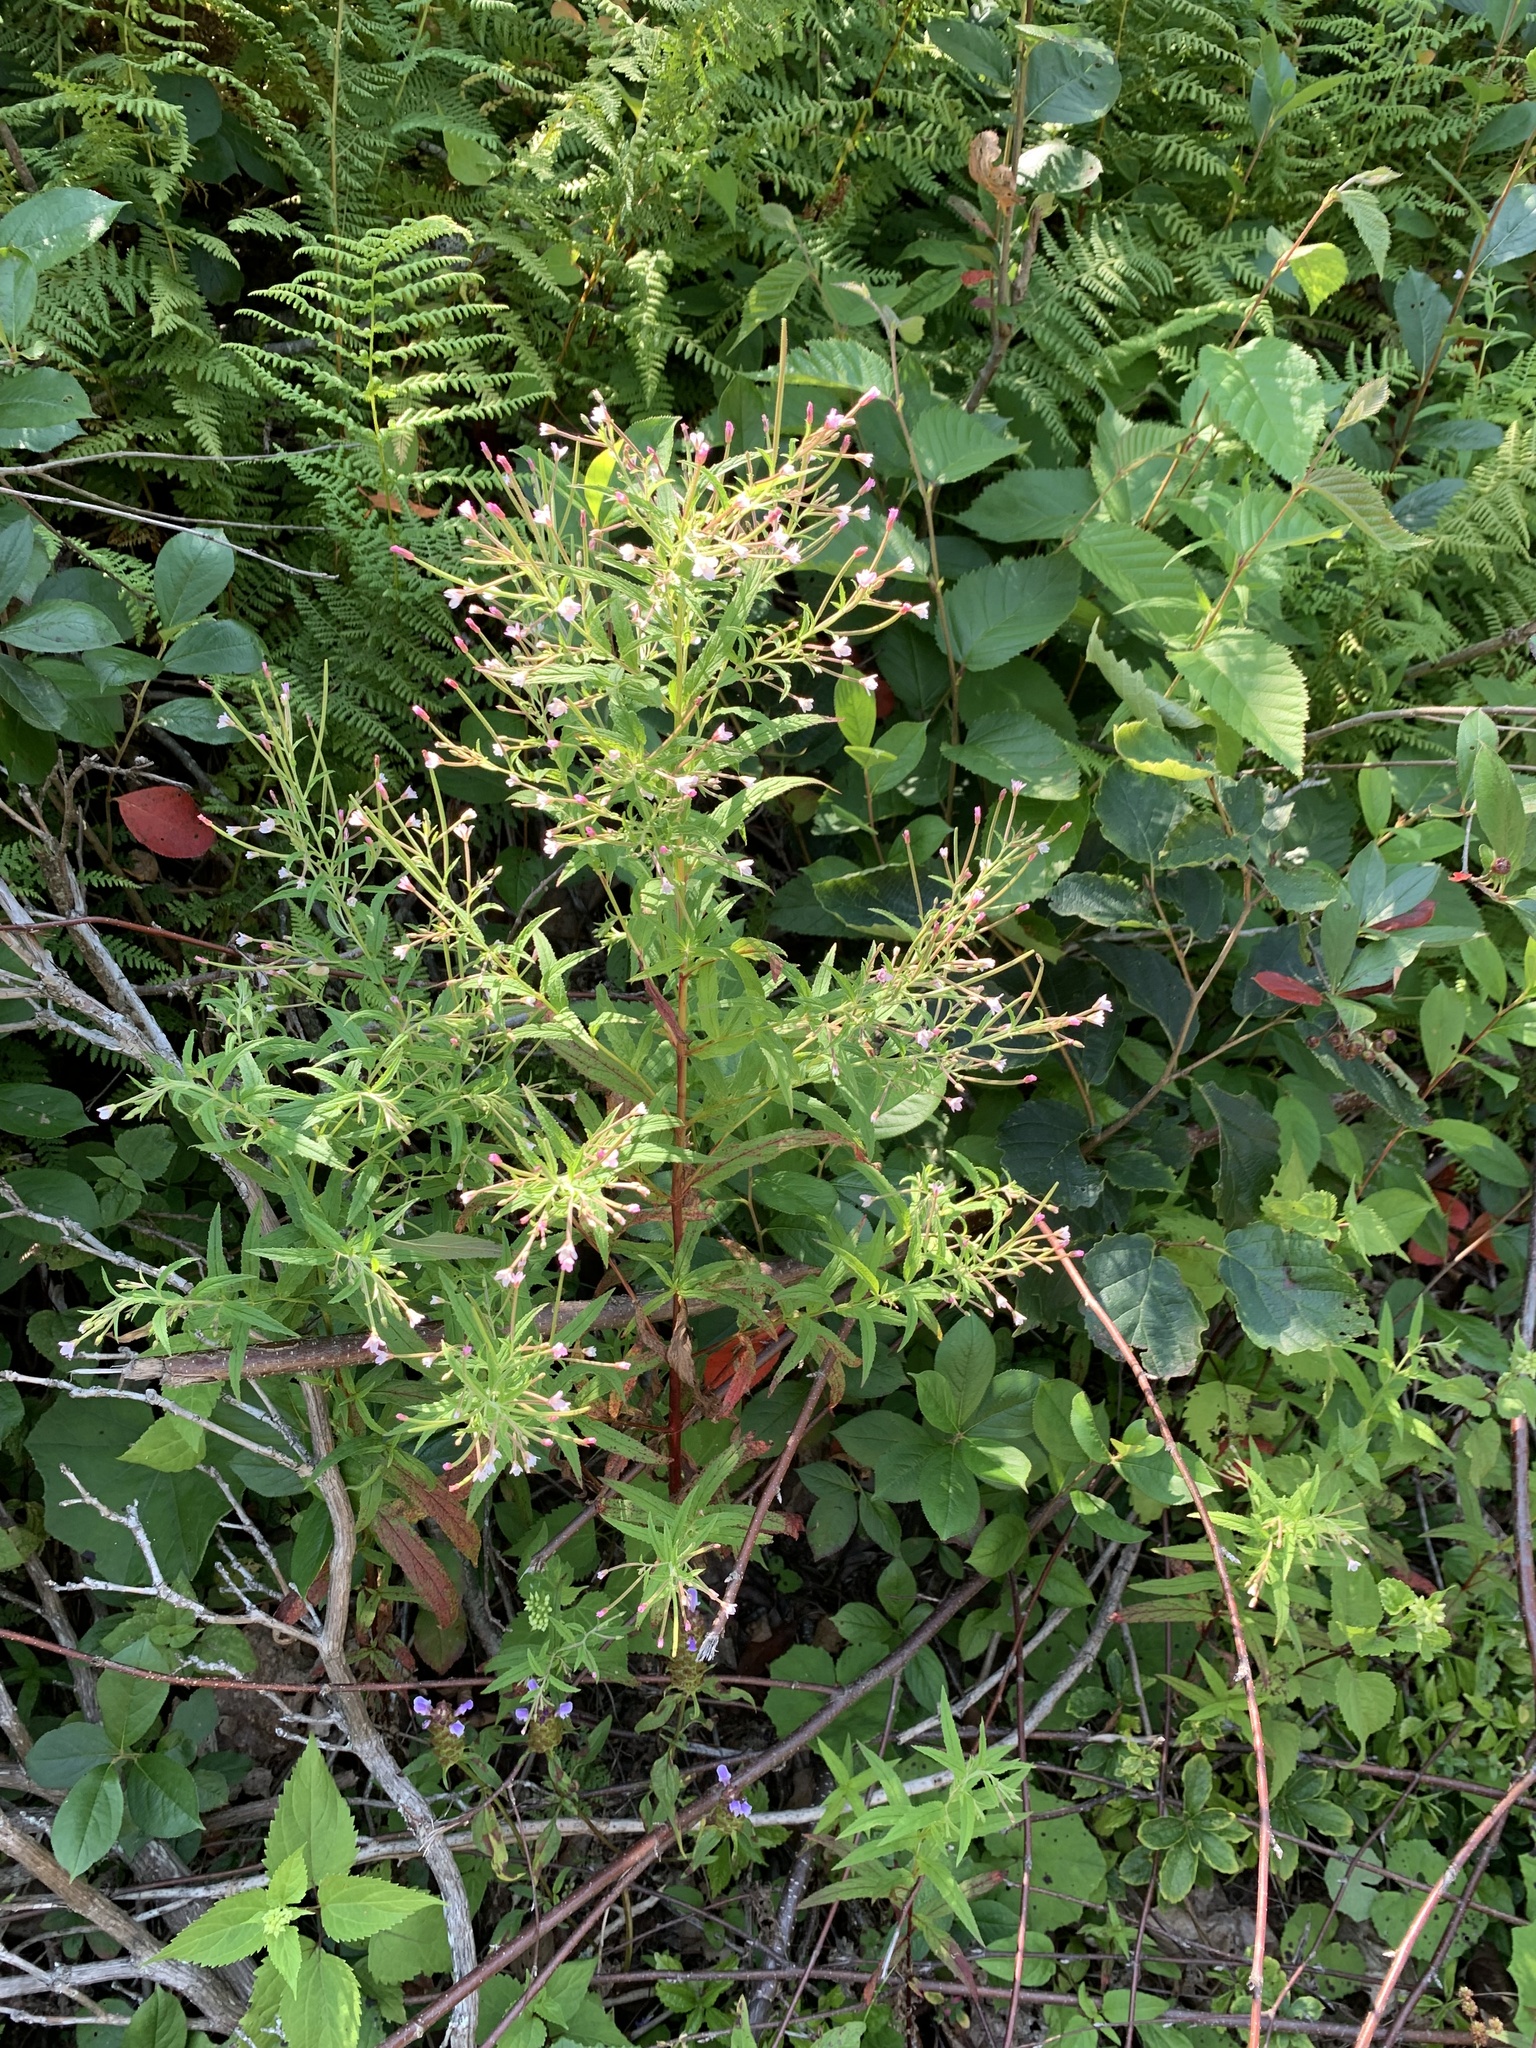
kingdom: Plantae
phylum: Tracheophyta
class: Magnoliopsida
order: Myrtales
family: Onagraceae
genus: Epilobium
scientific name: Epilobium coloratum
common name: Bronze willowherb
